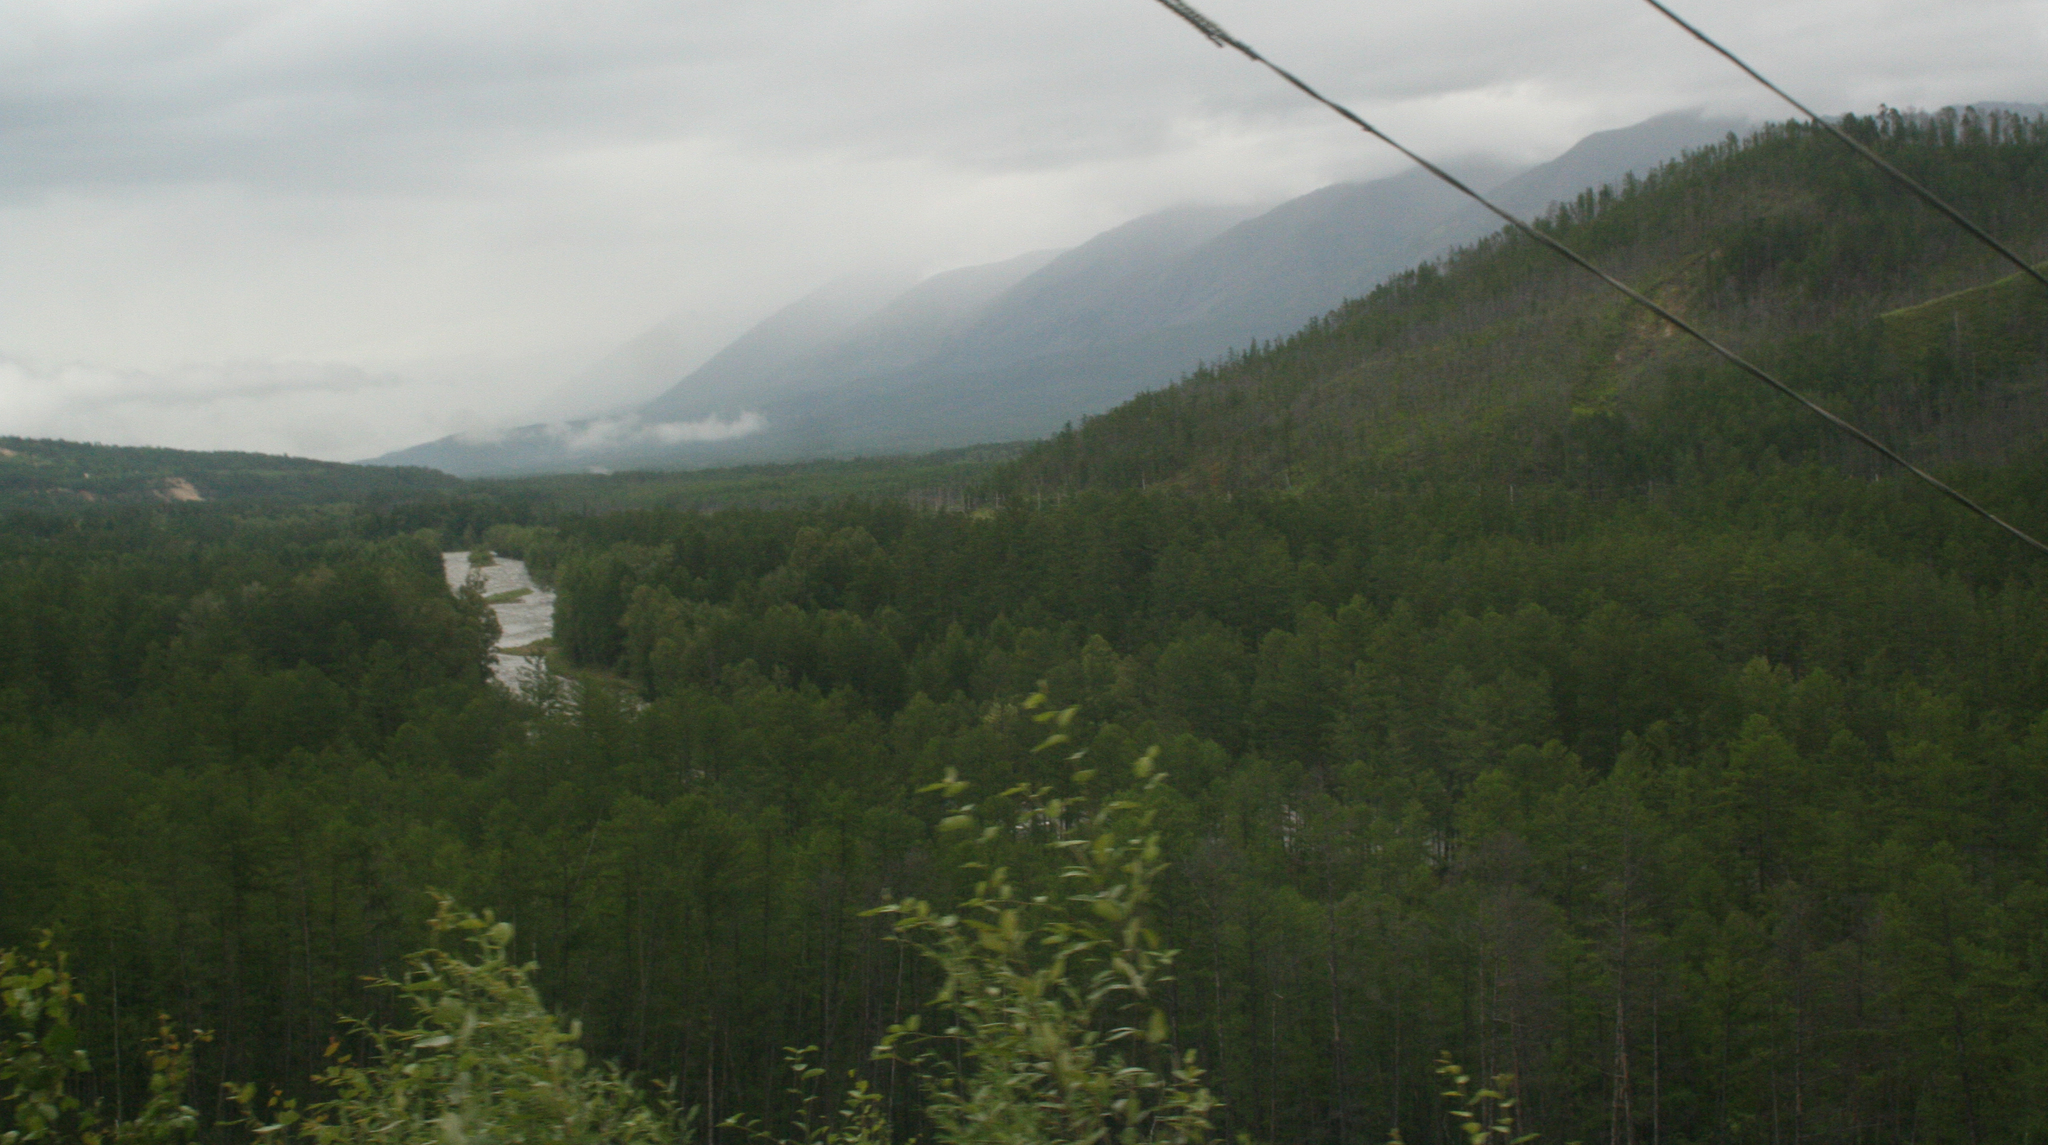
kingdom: Plantae
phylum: Tracheophyta
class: Pinopsida
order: Pinales
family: Pinaceae
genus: Larix
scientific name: Larix gmelinii
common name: Dahurian larch
